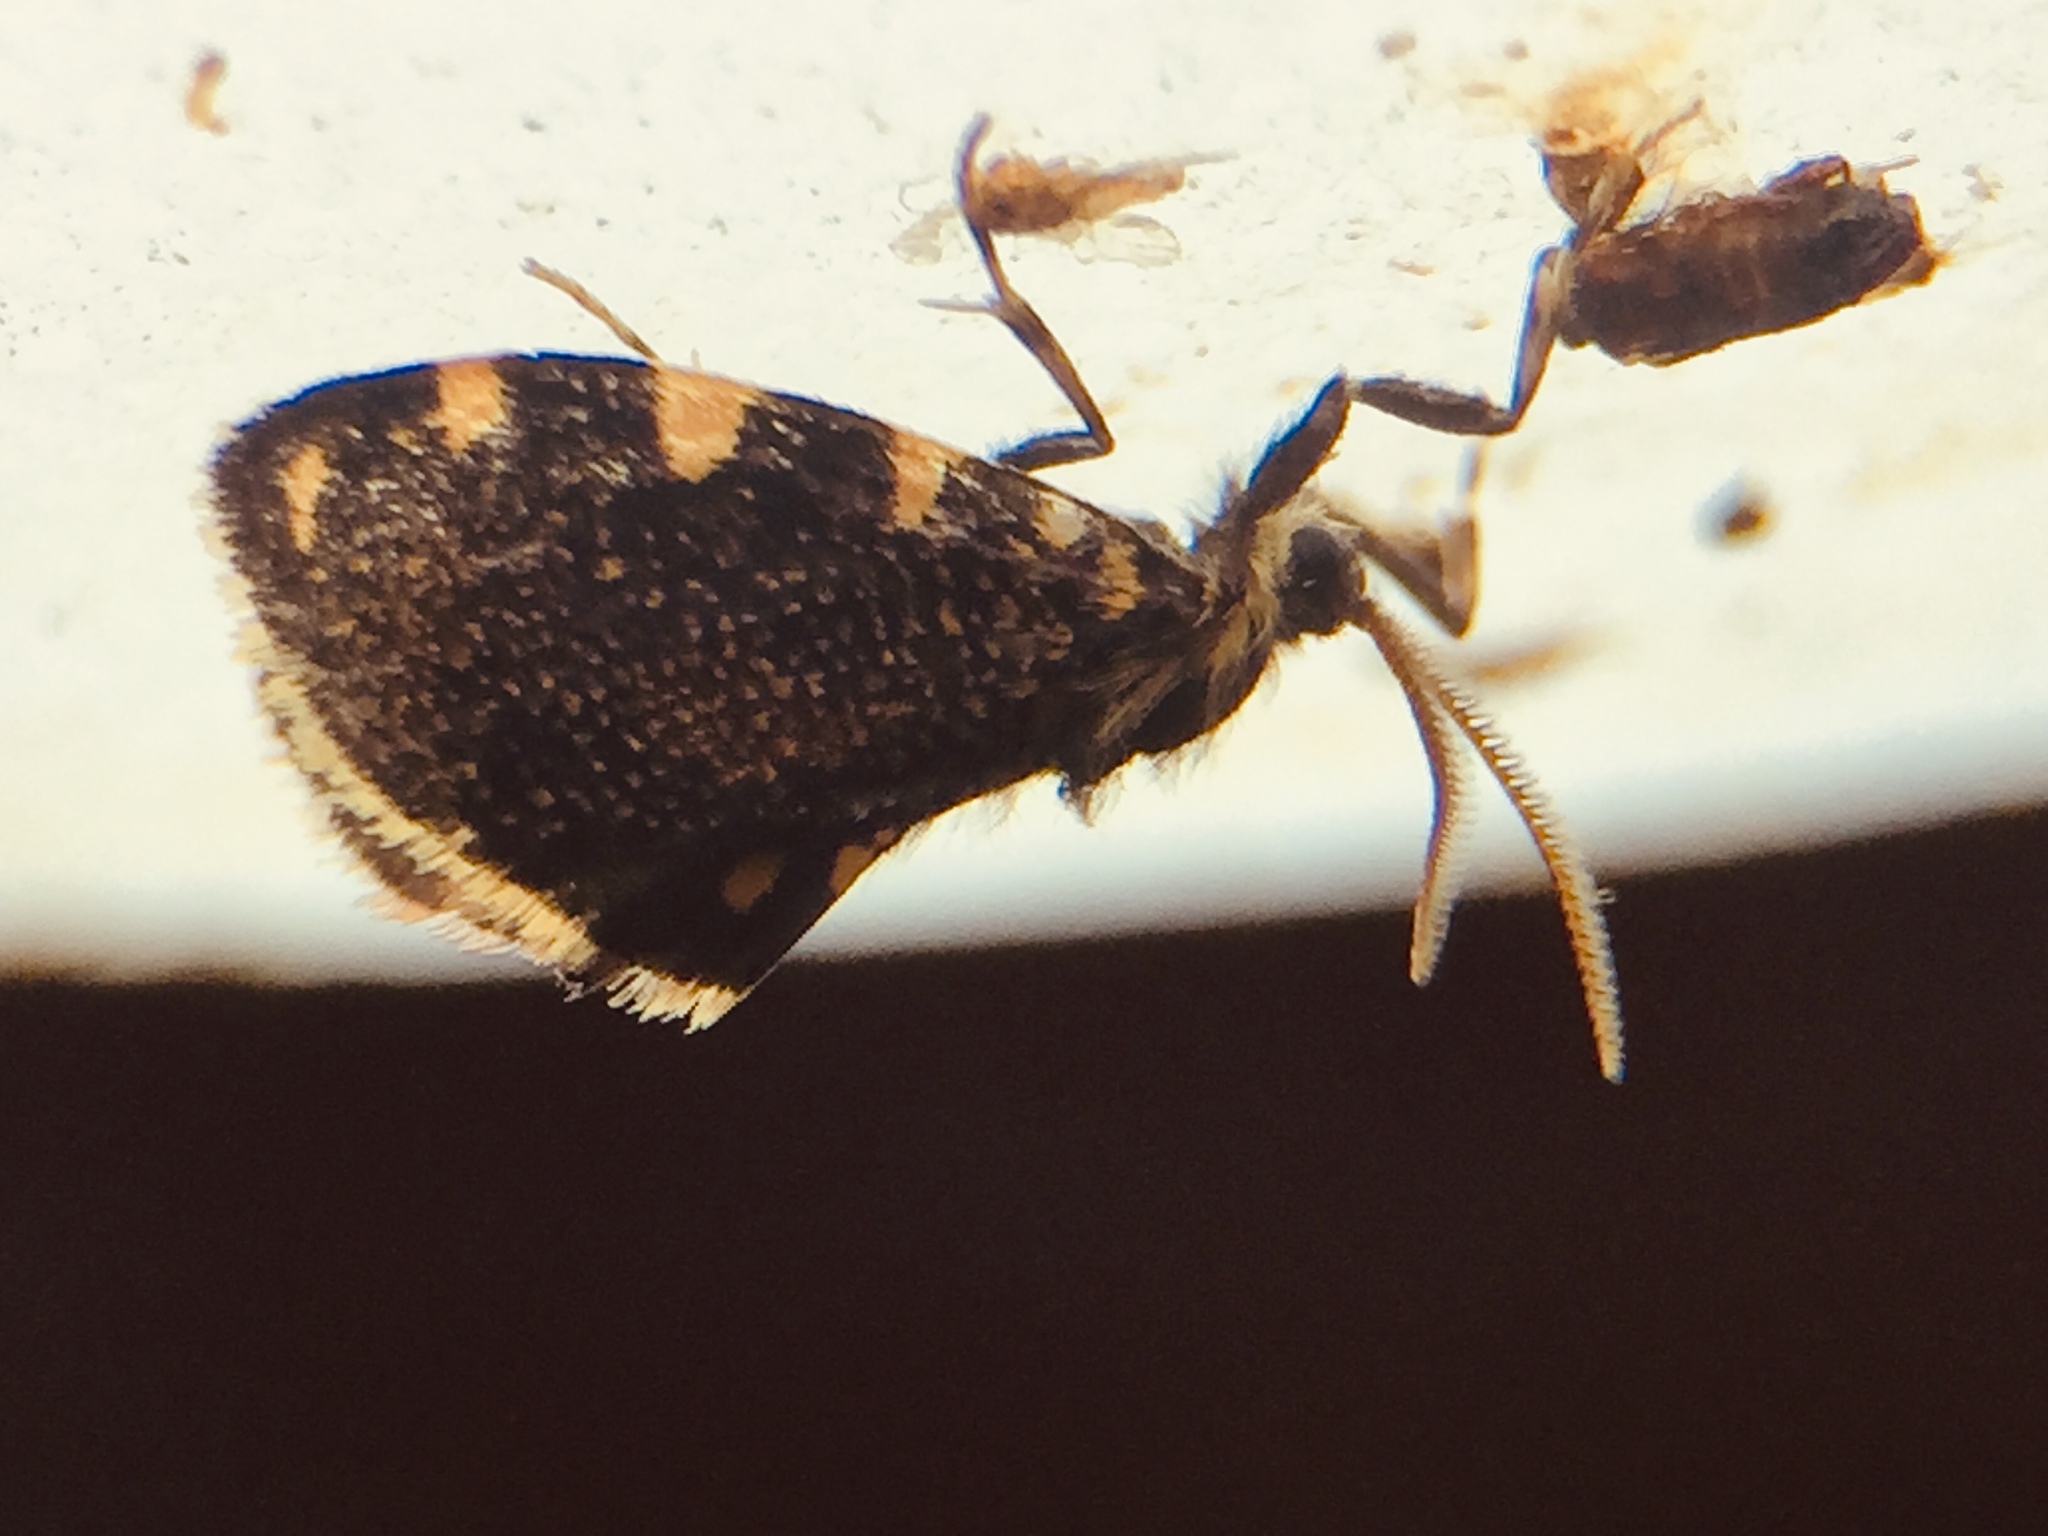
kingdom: Animalia
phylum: Arthropoda
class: Insecta
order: Lepidoptera
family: Psychidae
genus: Cebysa
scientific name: Cebysa leucotelus
